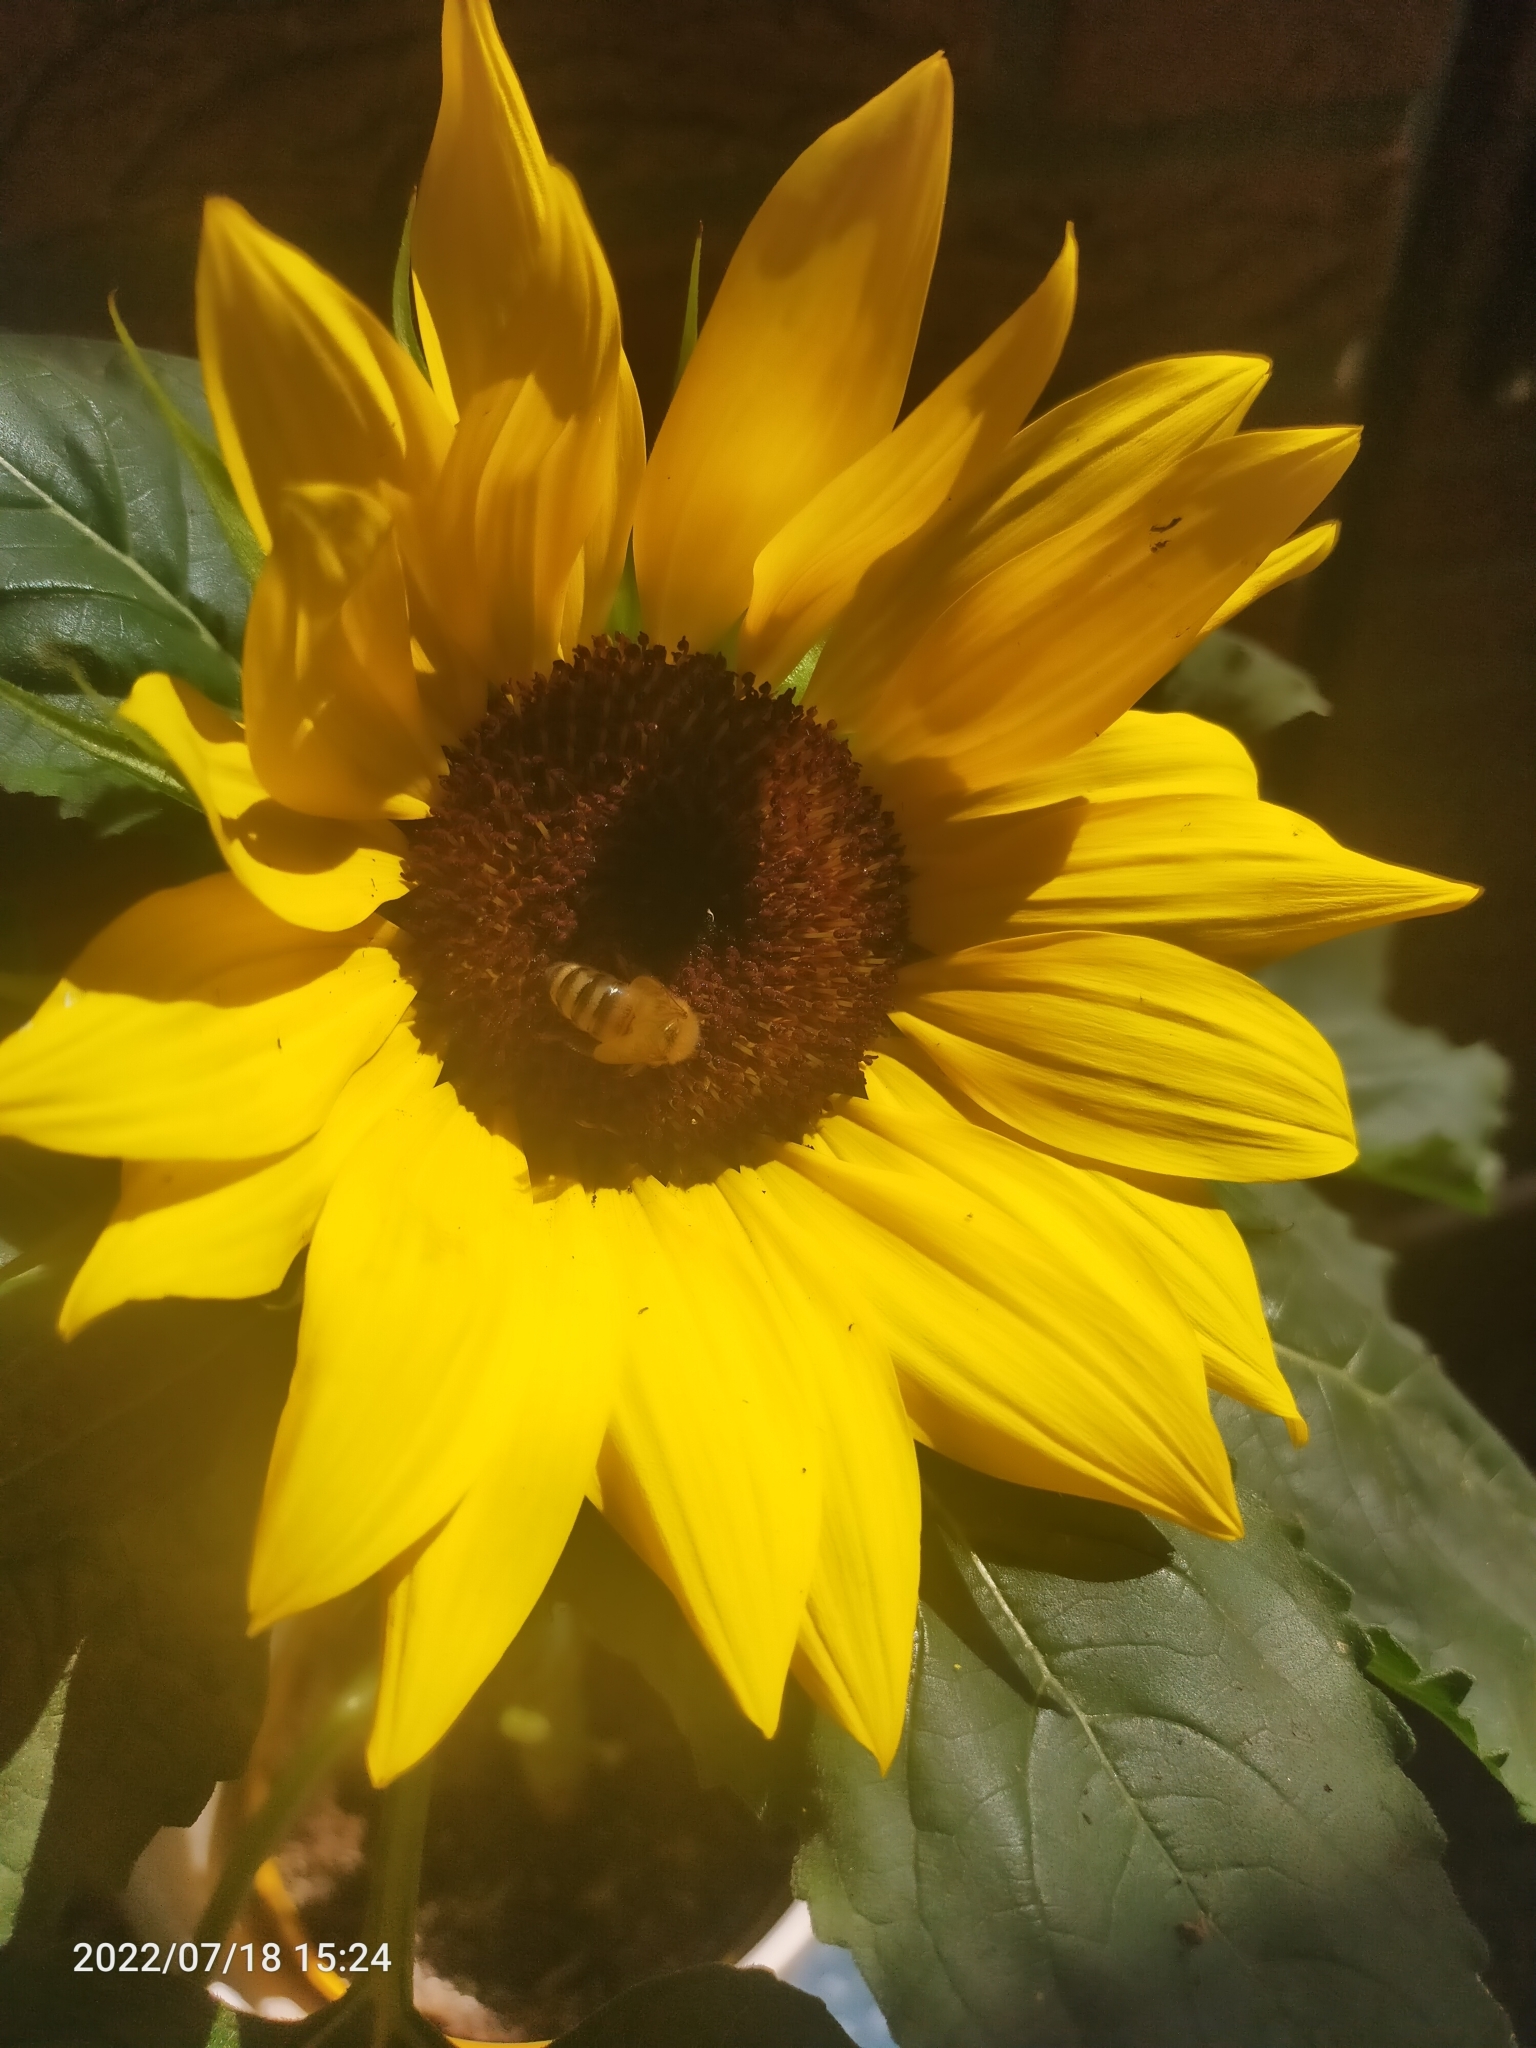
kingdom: Animalia
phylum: Arthropoda
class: Insecta
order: Hymenoptera
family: Apidae
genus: Apis
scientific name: Apis mellifera
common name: Honey bee
